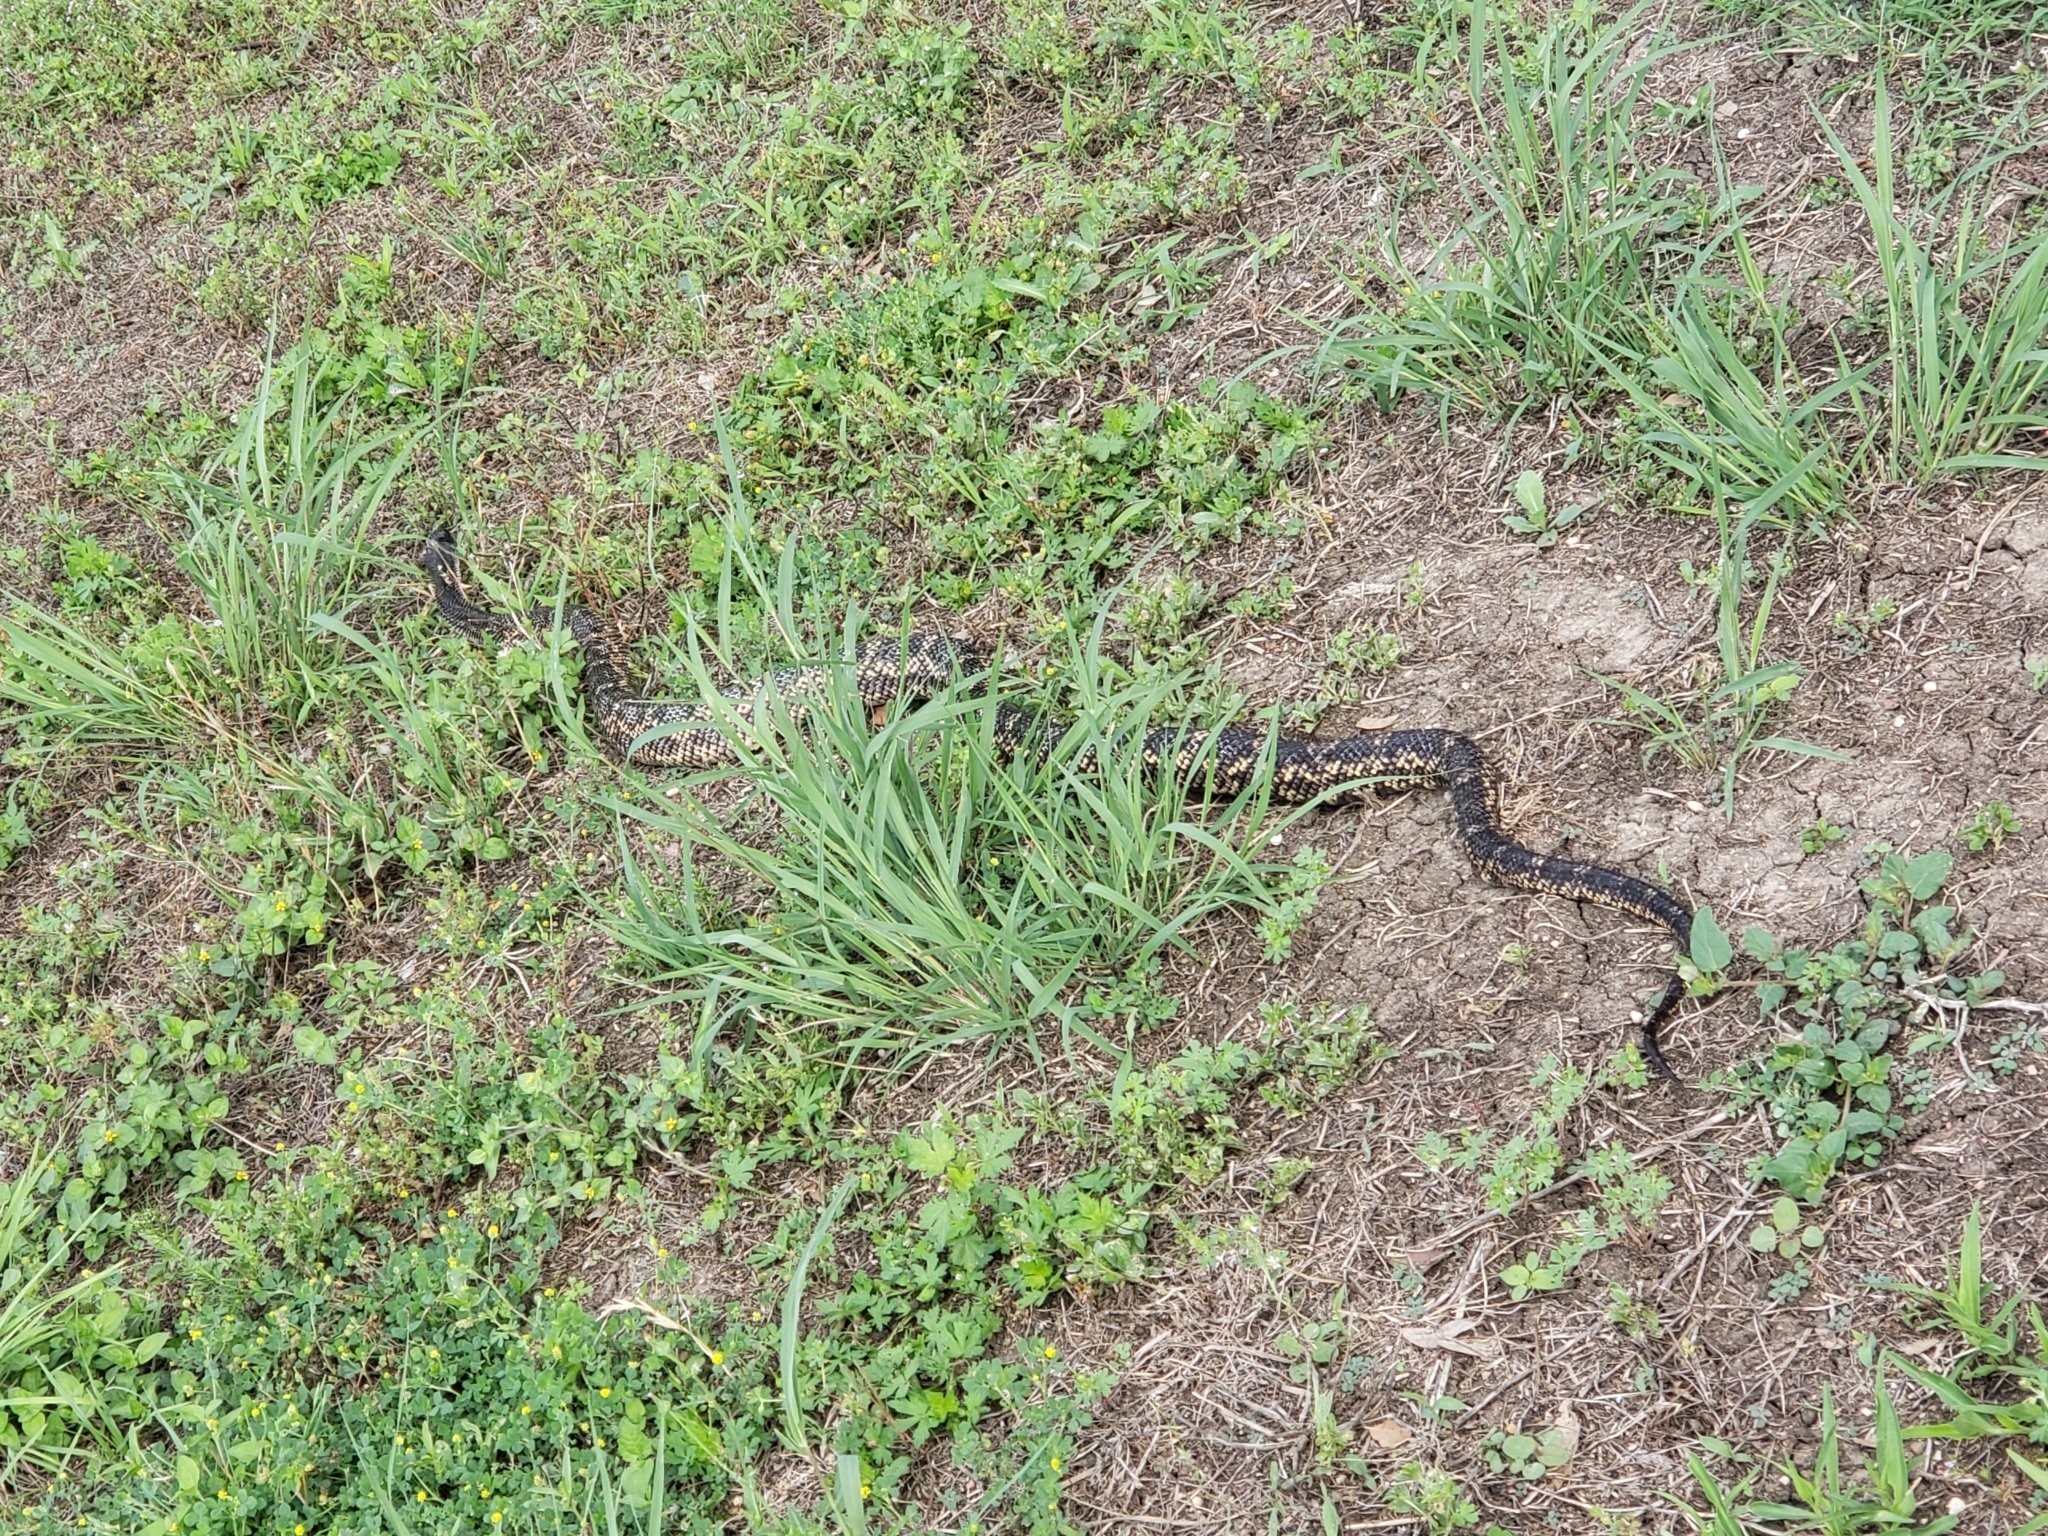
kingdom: Animalia
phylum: Chordata
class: Squamata
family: Colubridae
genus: Pantherophis
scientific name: Pantherophis obsoletus
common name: Black rat snake
